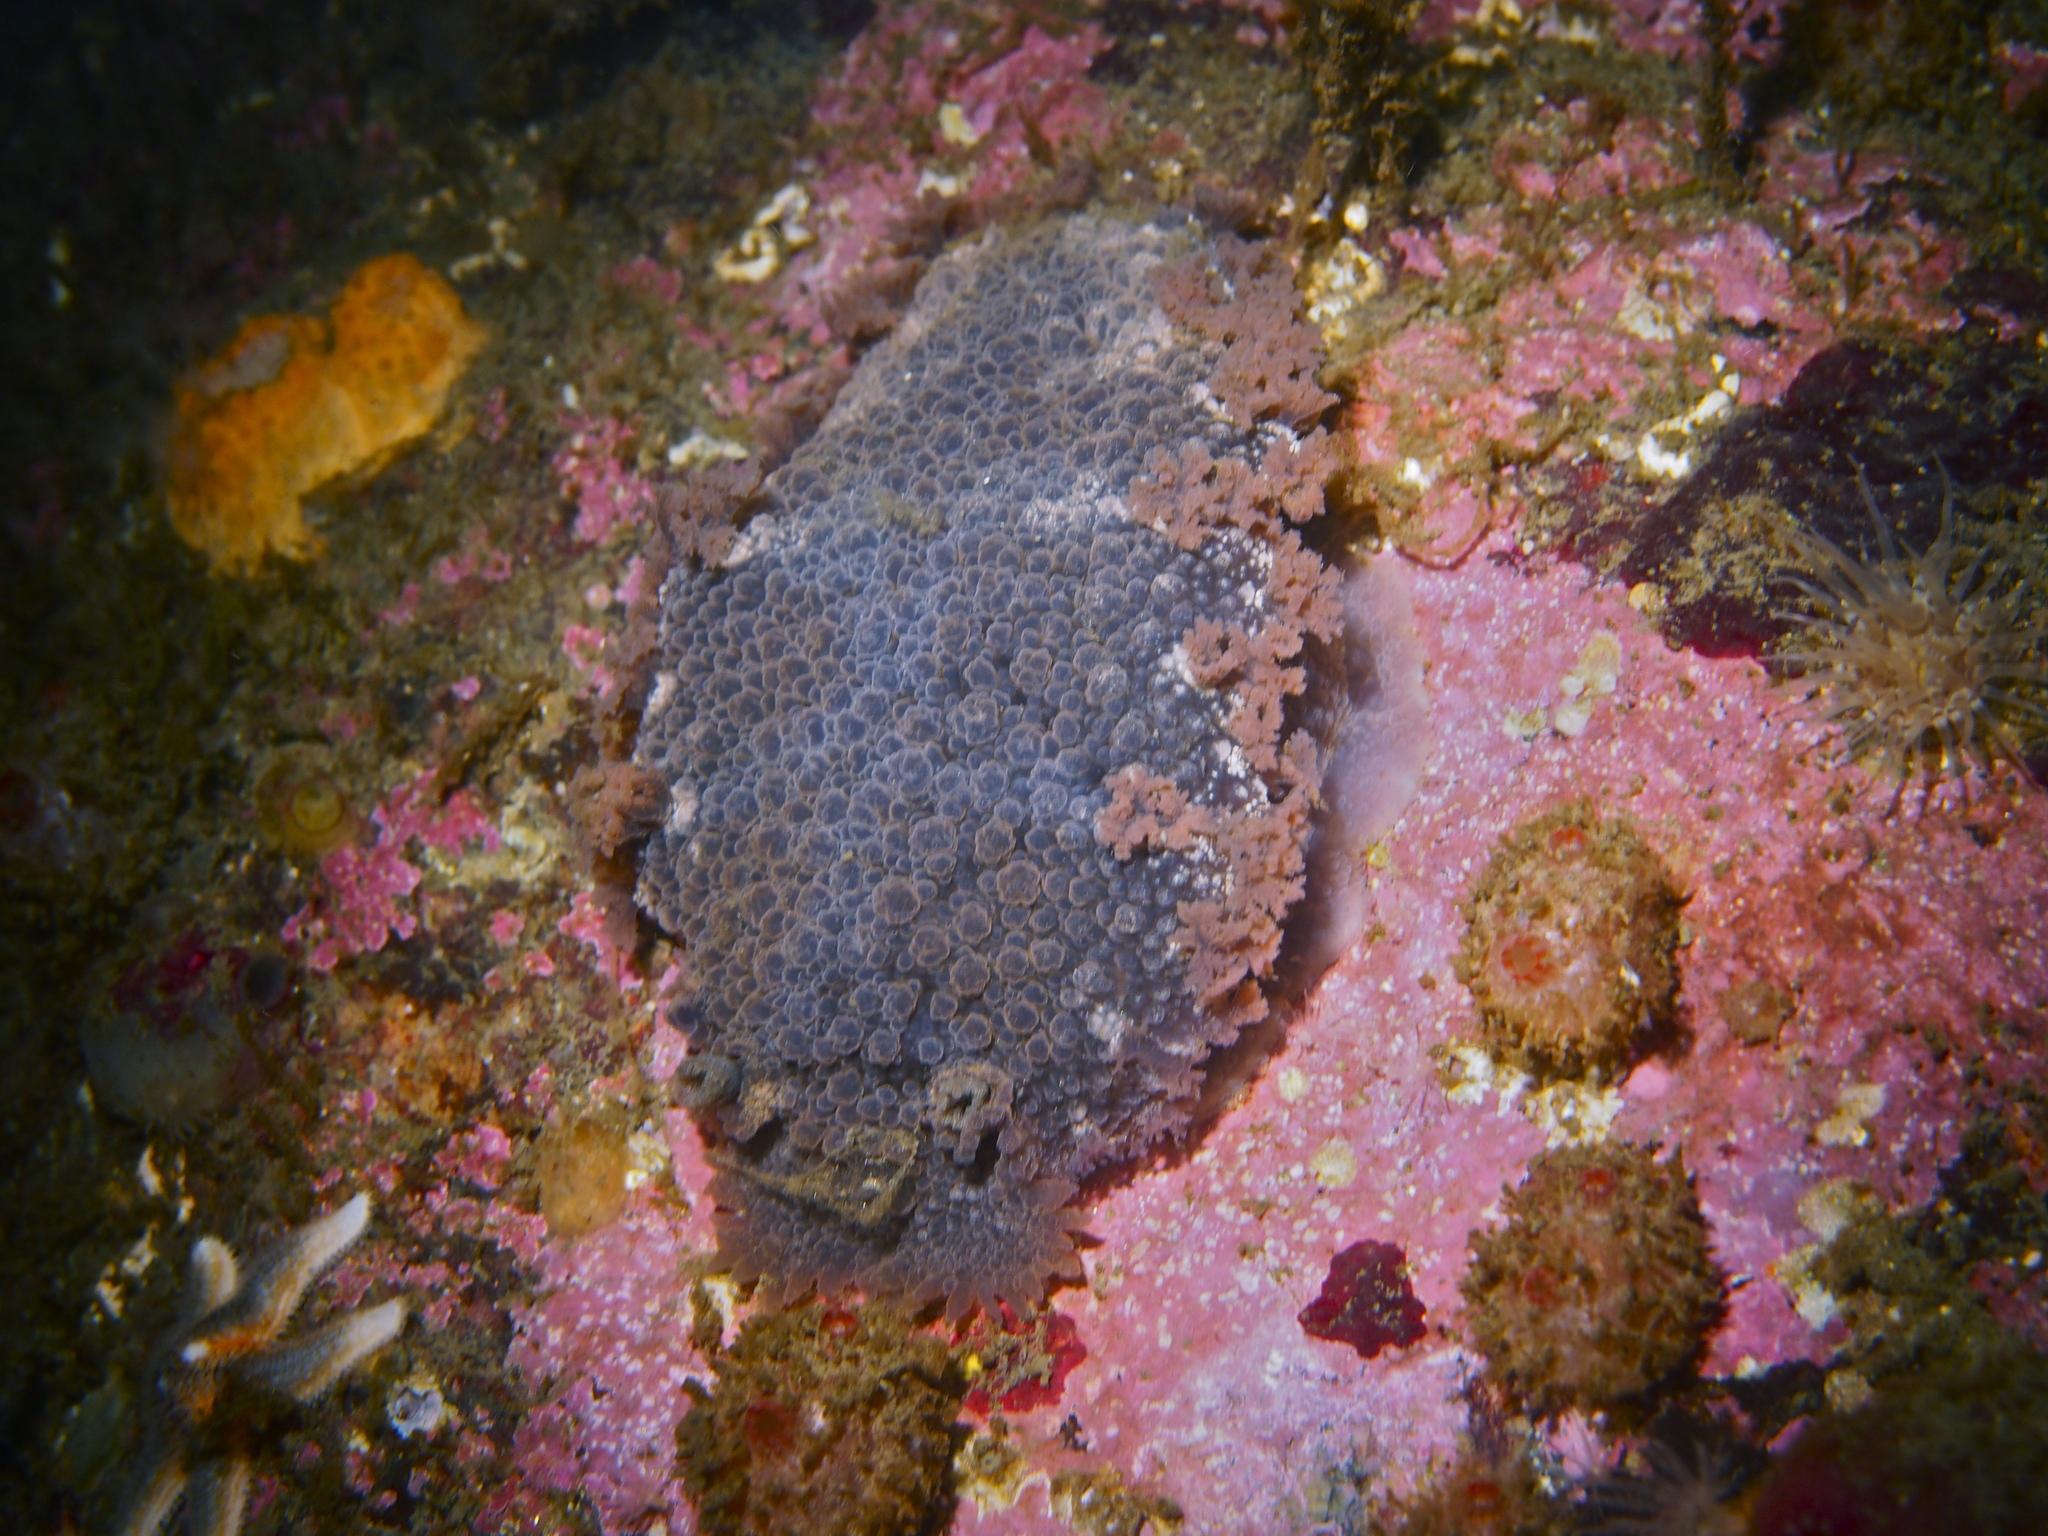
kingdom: Animalia
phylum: Mollusca
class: Gastropoda
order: Nudibranchia
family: Tritoniidae
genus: Tritonia
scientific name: Tritonia hombergii
